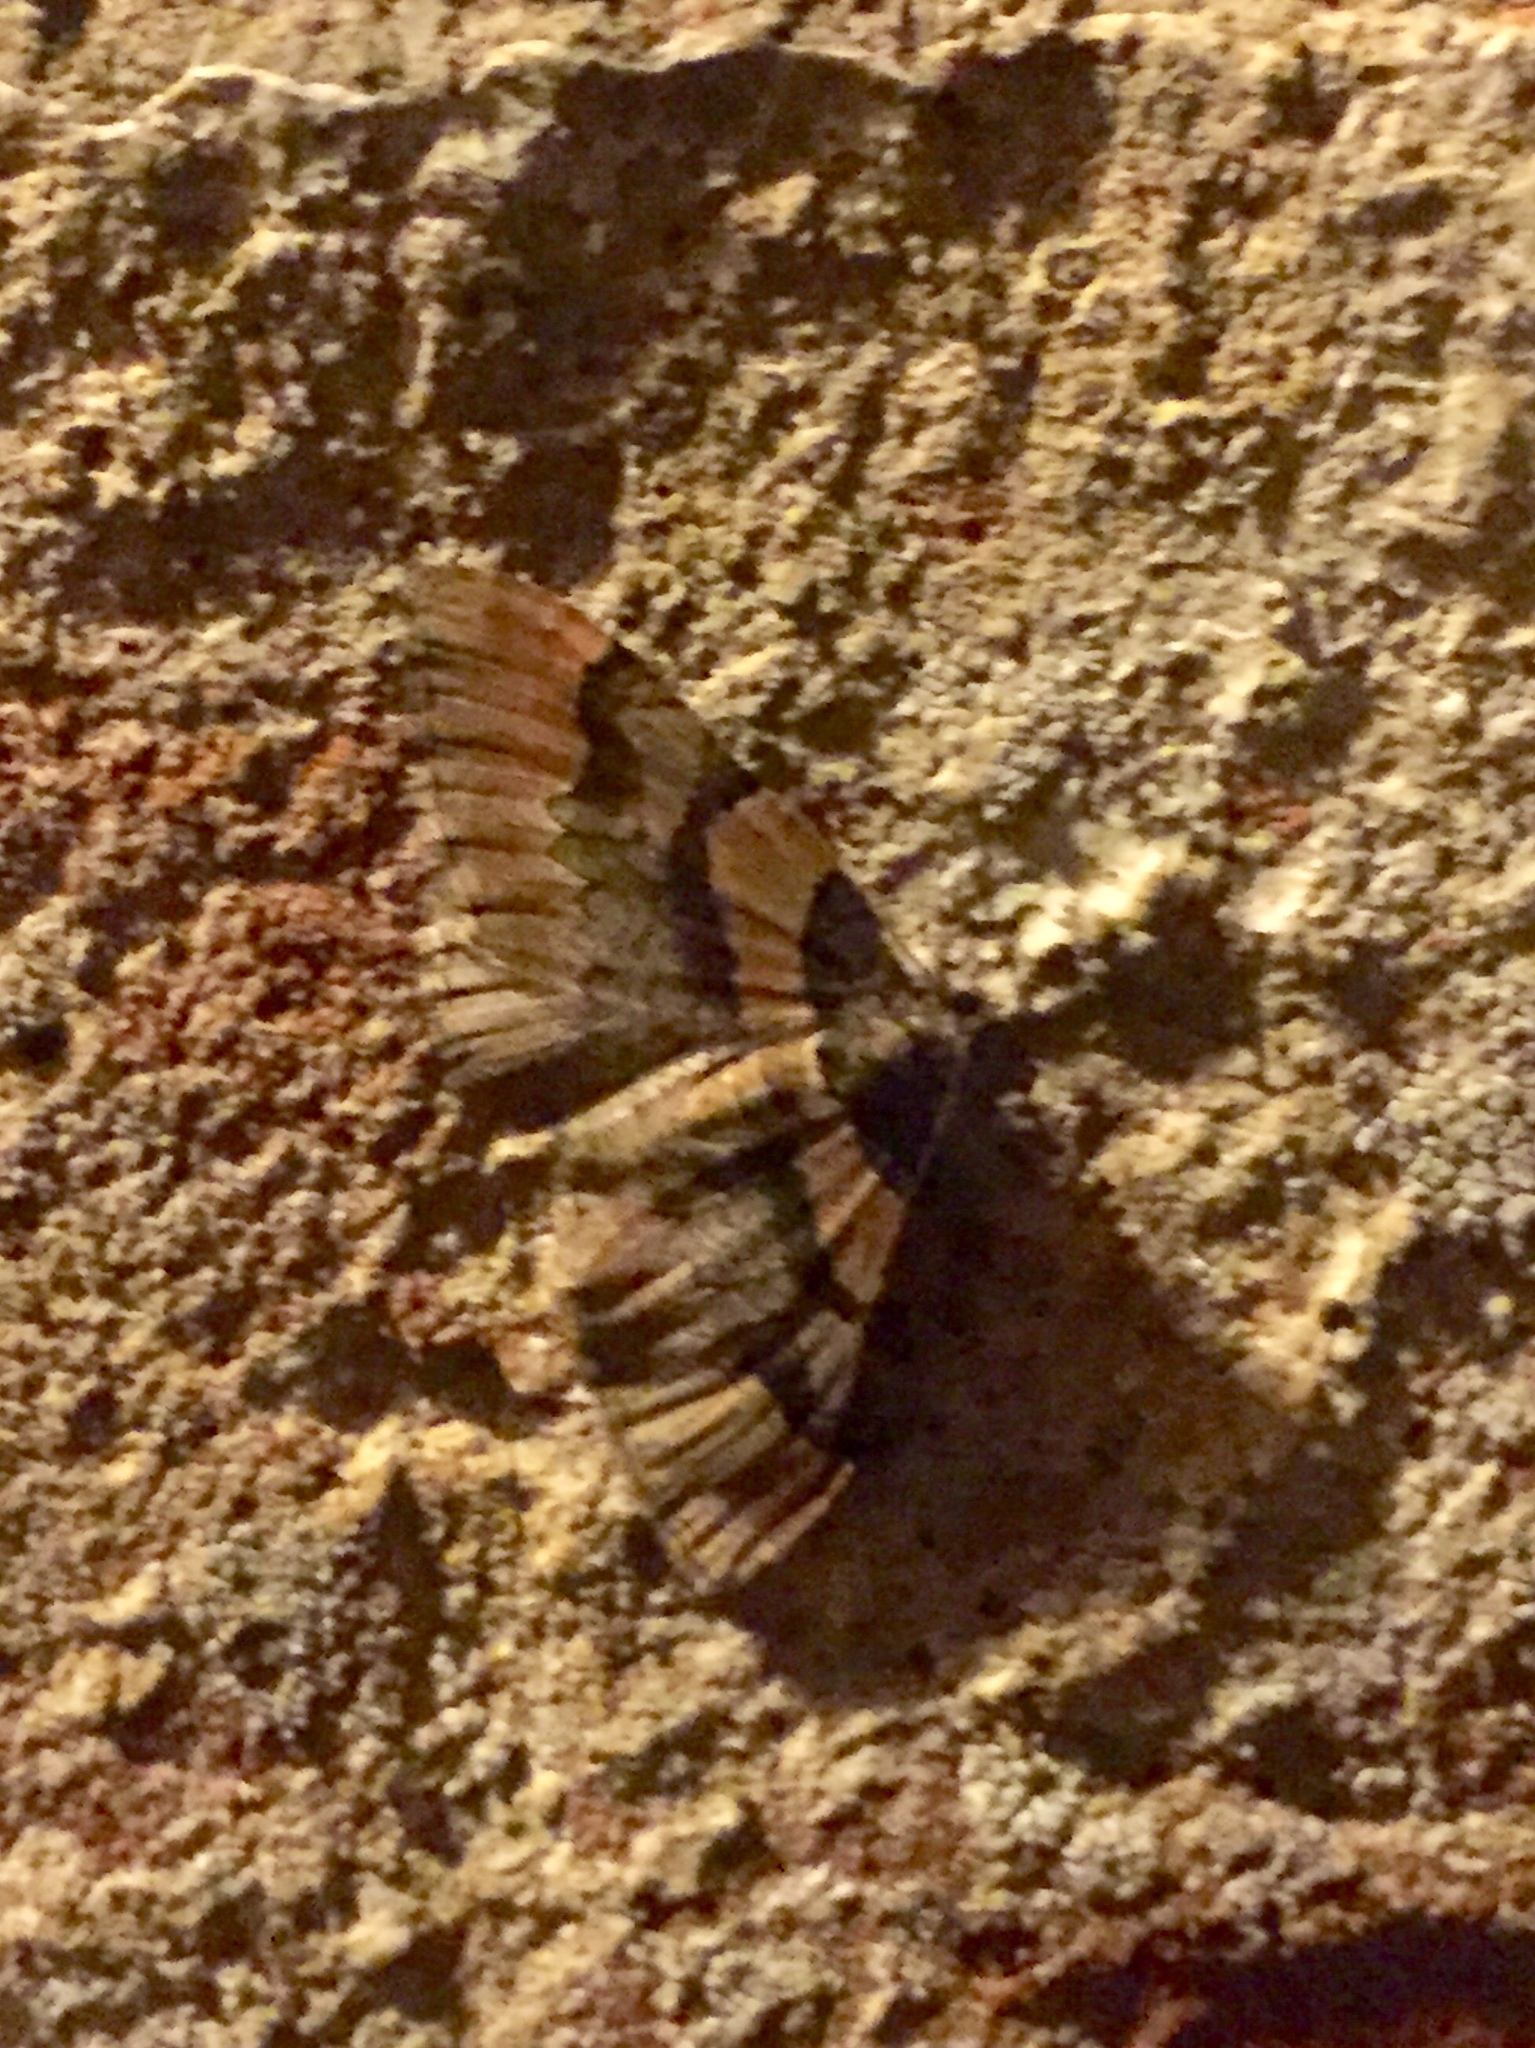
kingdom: Animalia
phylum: Arthropoda
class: Insecta
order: Lepidoptera
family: Geometridae
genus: Catarhoe
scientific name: Catarhoe rubidata
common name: Ruddy carpet
